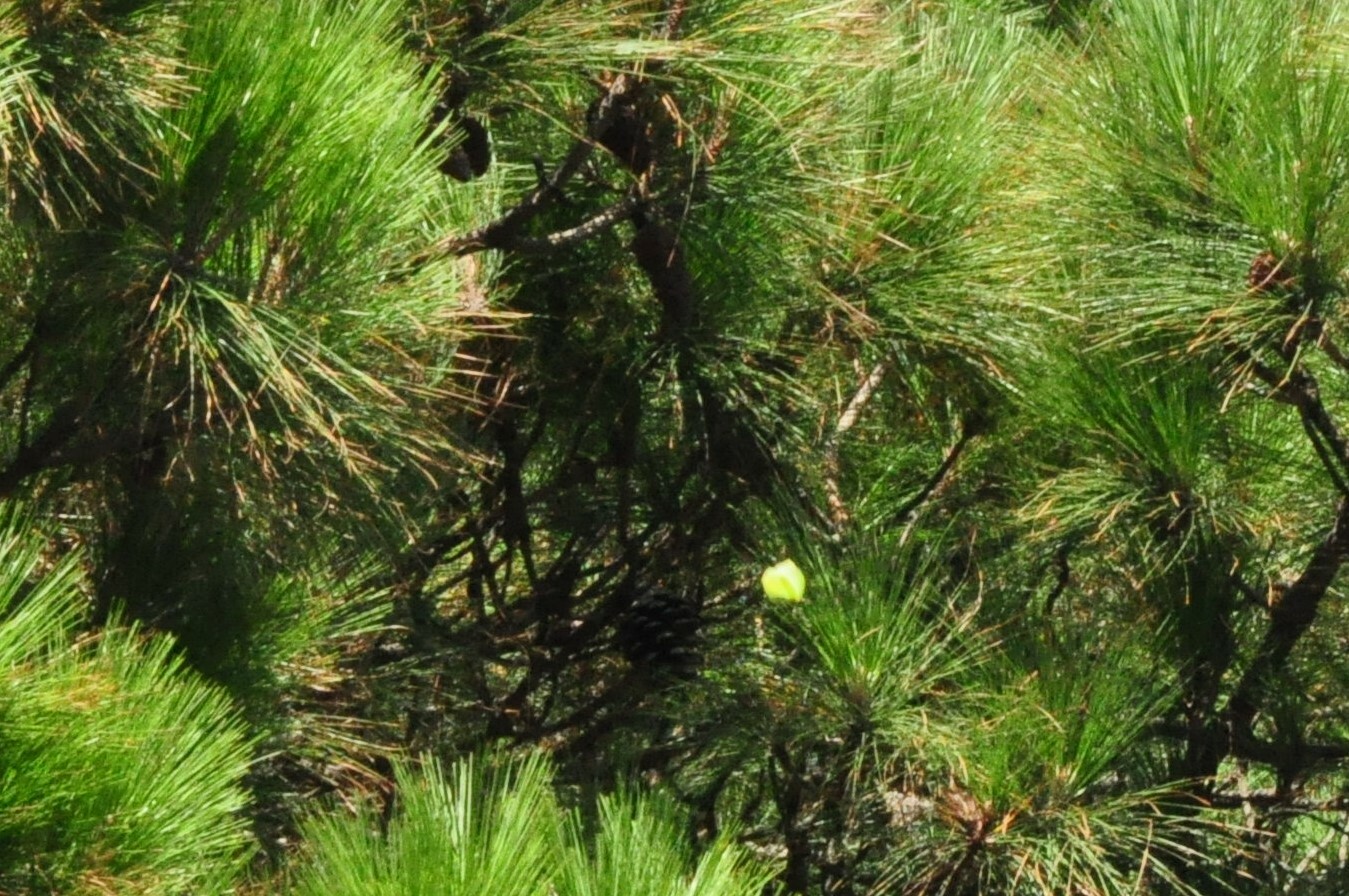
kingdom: Animalia
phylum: Arthropoda
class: Insecta
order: Lepidoptera
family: Pieridae
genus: Gonepteryx
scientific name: Gonepteryx cleobule
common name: Canary brimstone
